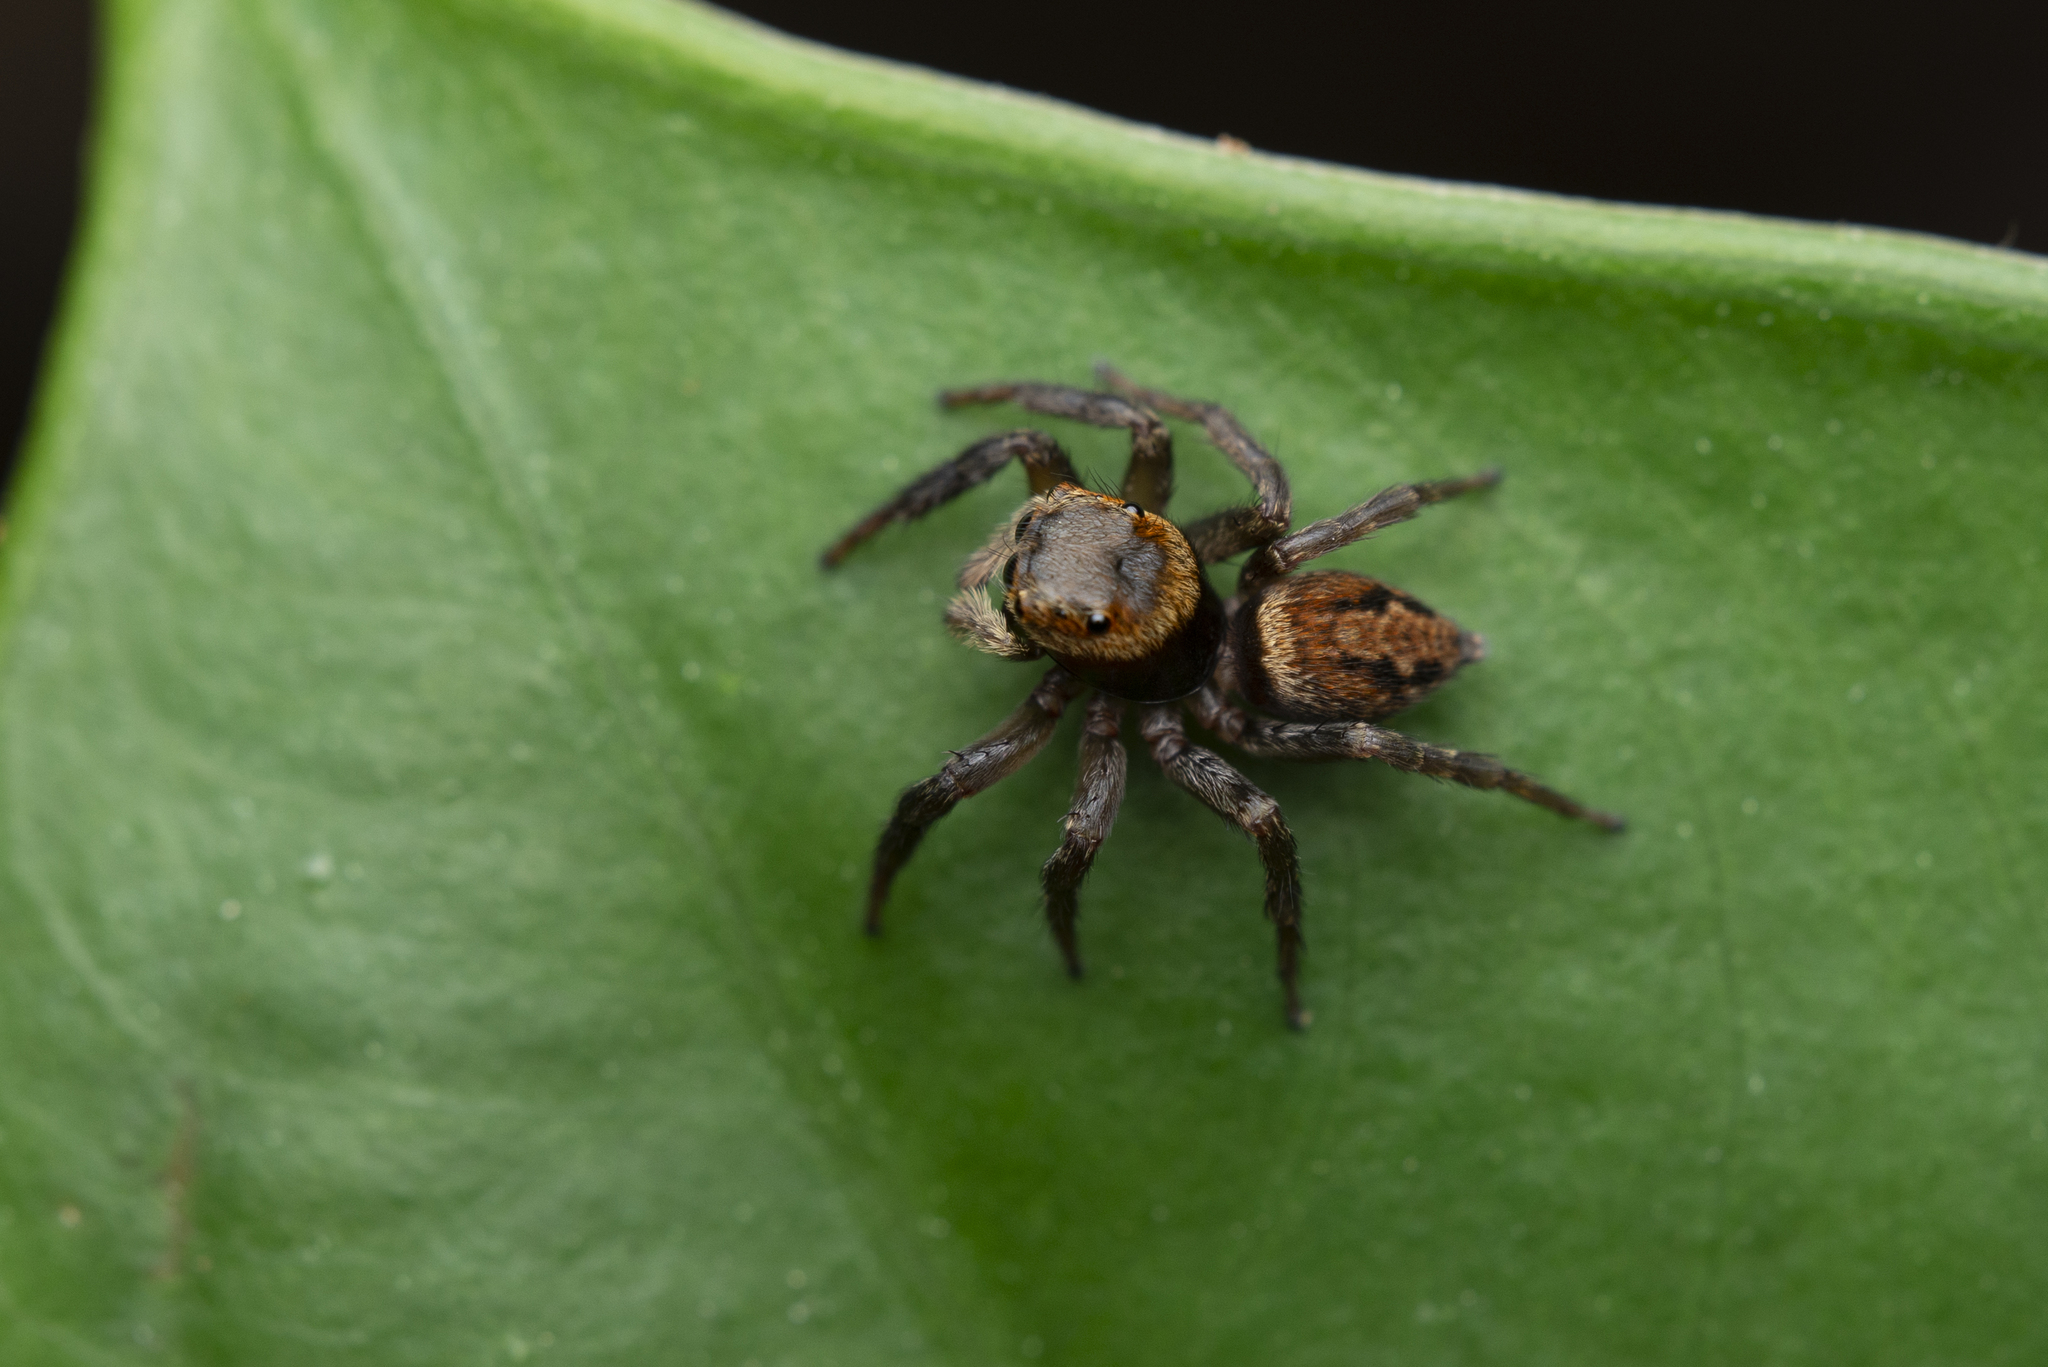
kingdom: Animalia
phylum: Arthropoda
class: Arachnida
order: Araneae
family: Salticidae
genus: Hasarius
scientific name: Hasarius adansoni
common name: Jumping spider
